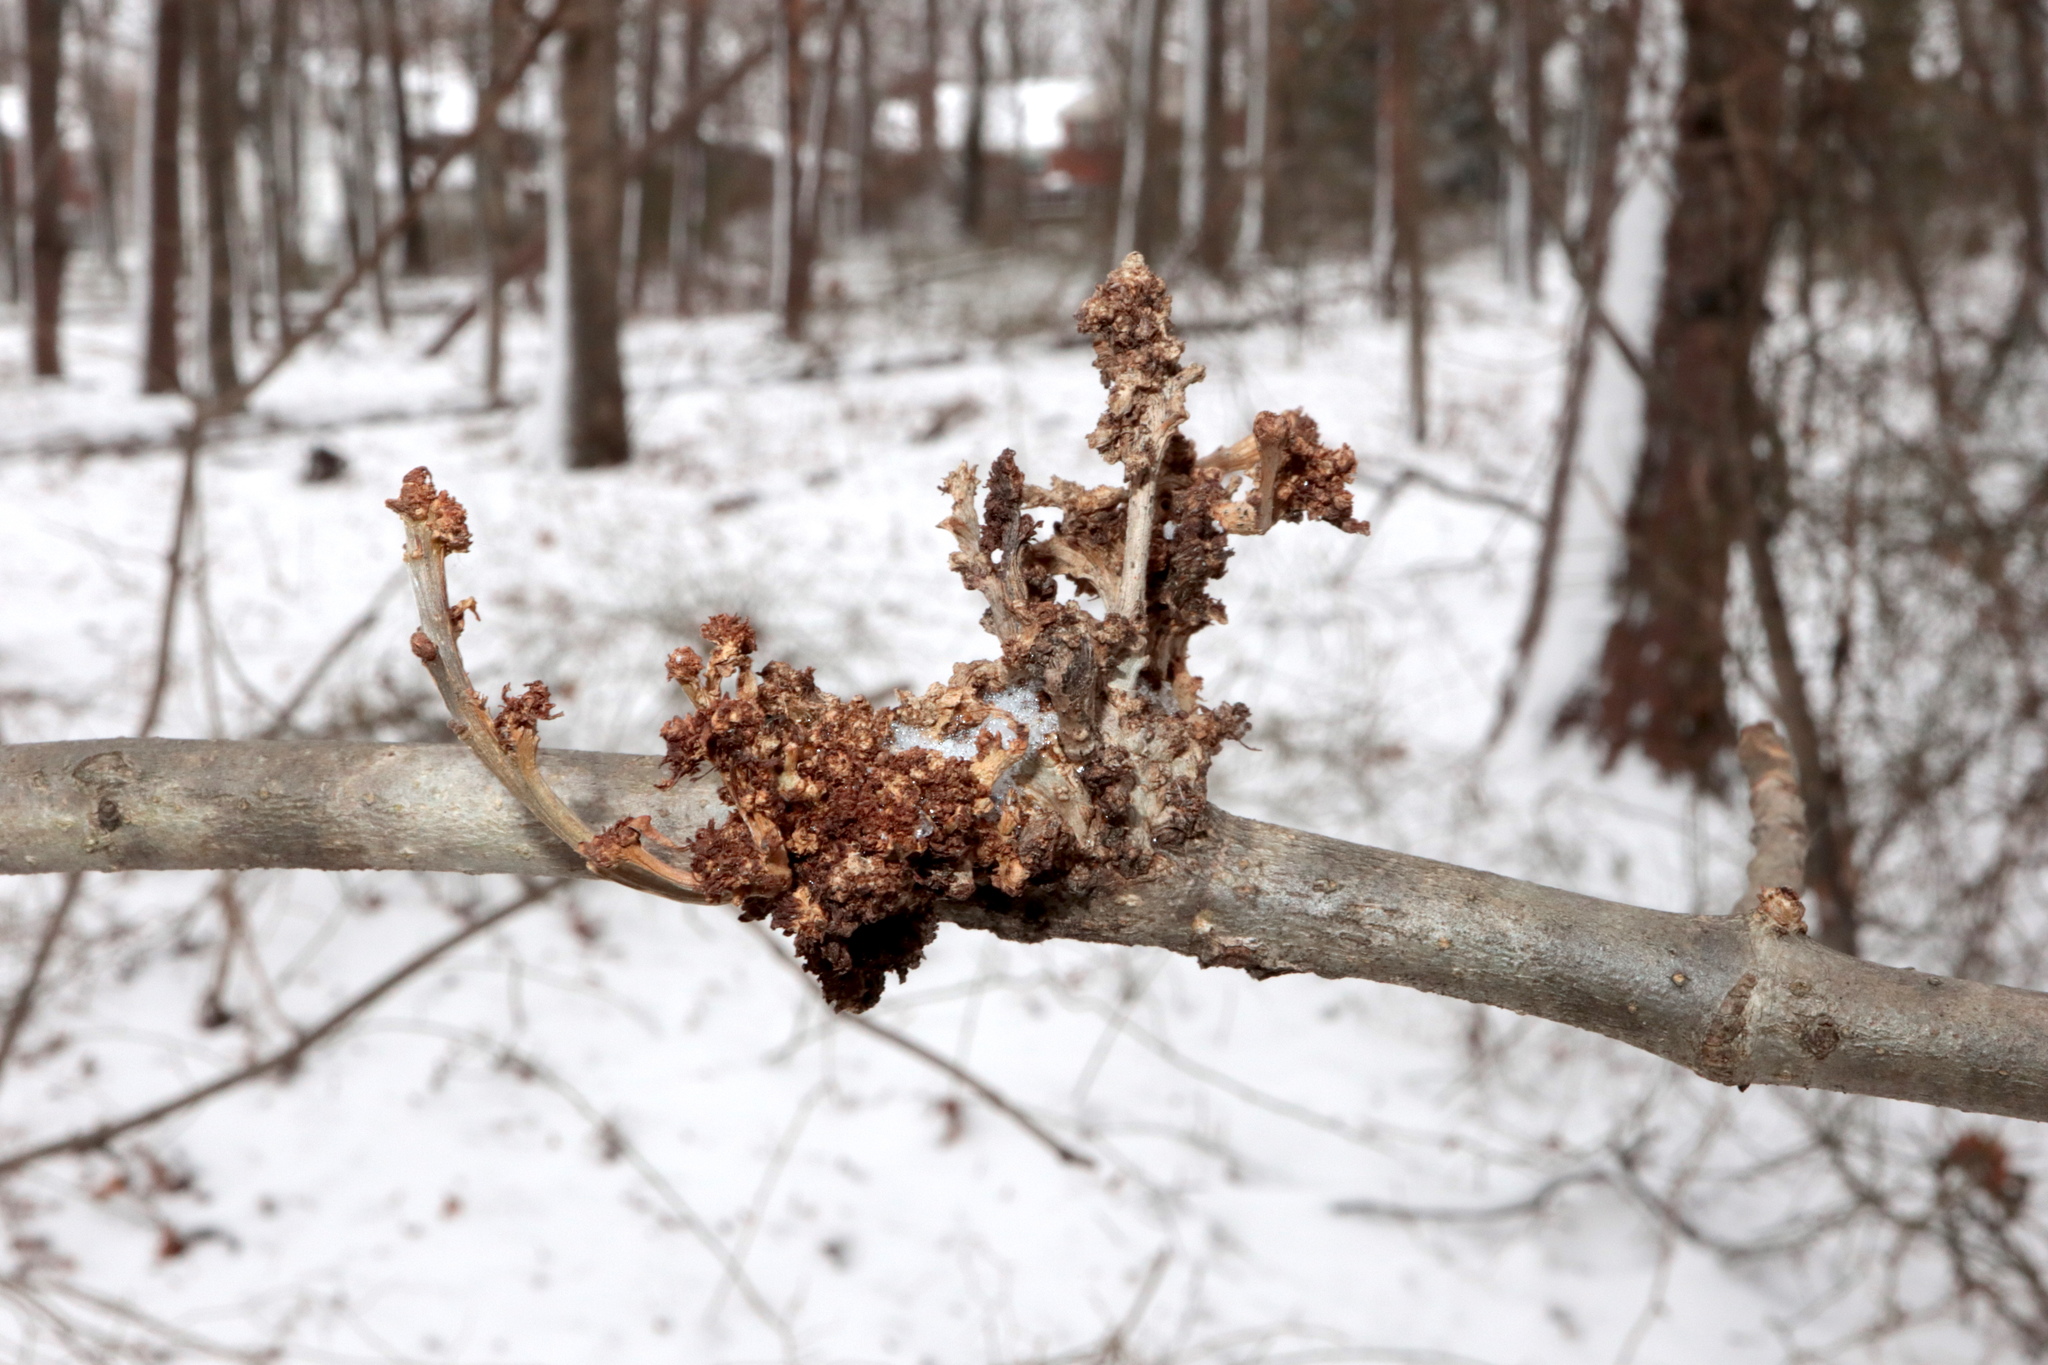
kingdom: Animalia
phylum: Arthropoda
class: Arachnida
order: Trombidiformes
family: Eriophyidae
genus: Aceria
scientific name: Aceria fraxiniflora
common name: Ash flower gall mite
